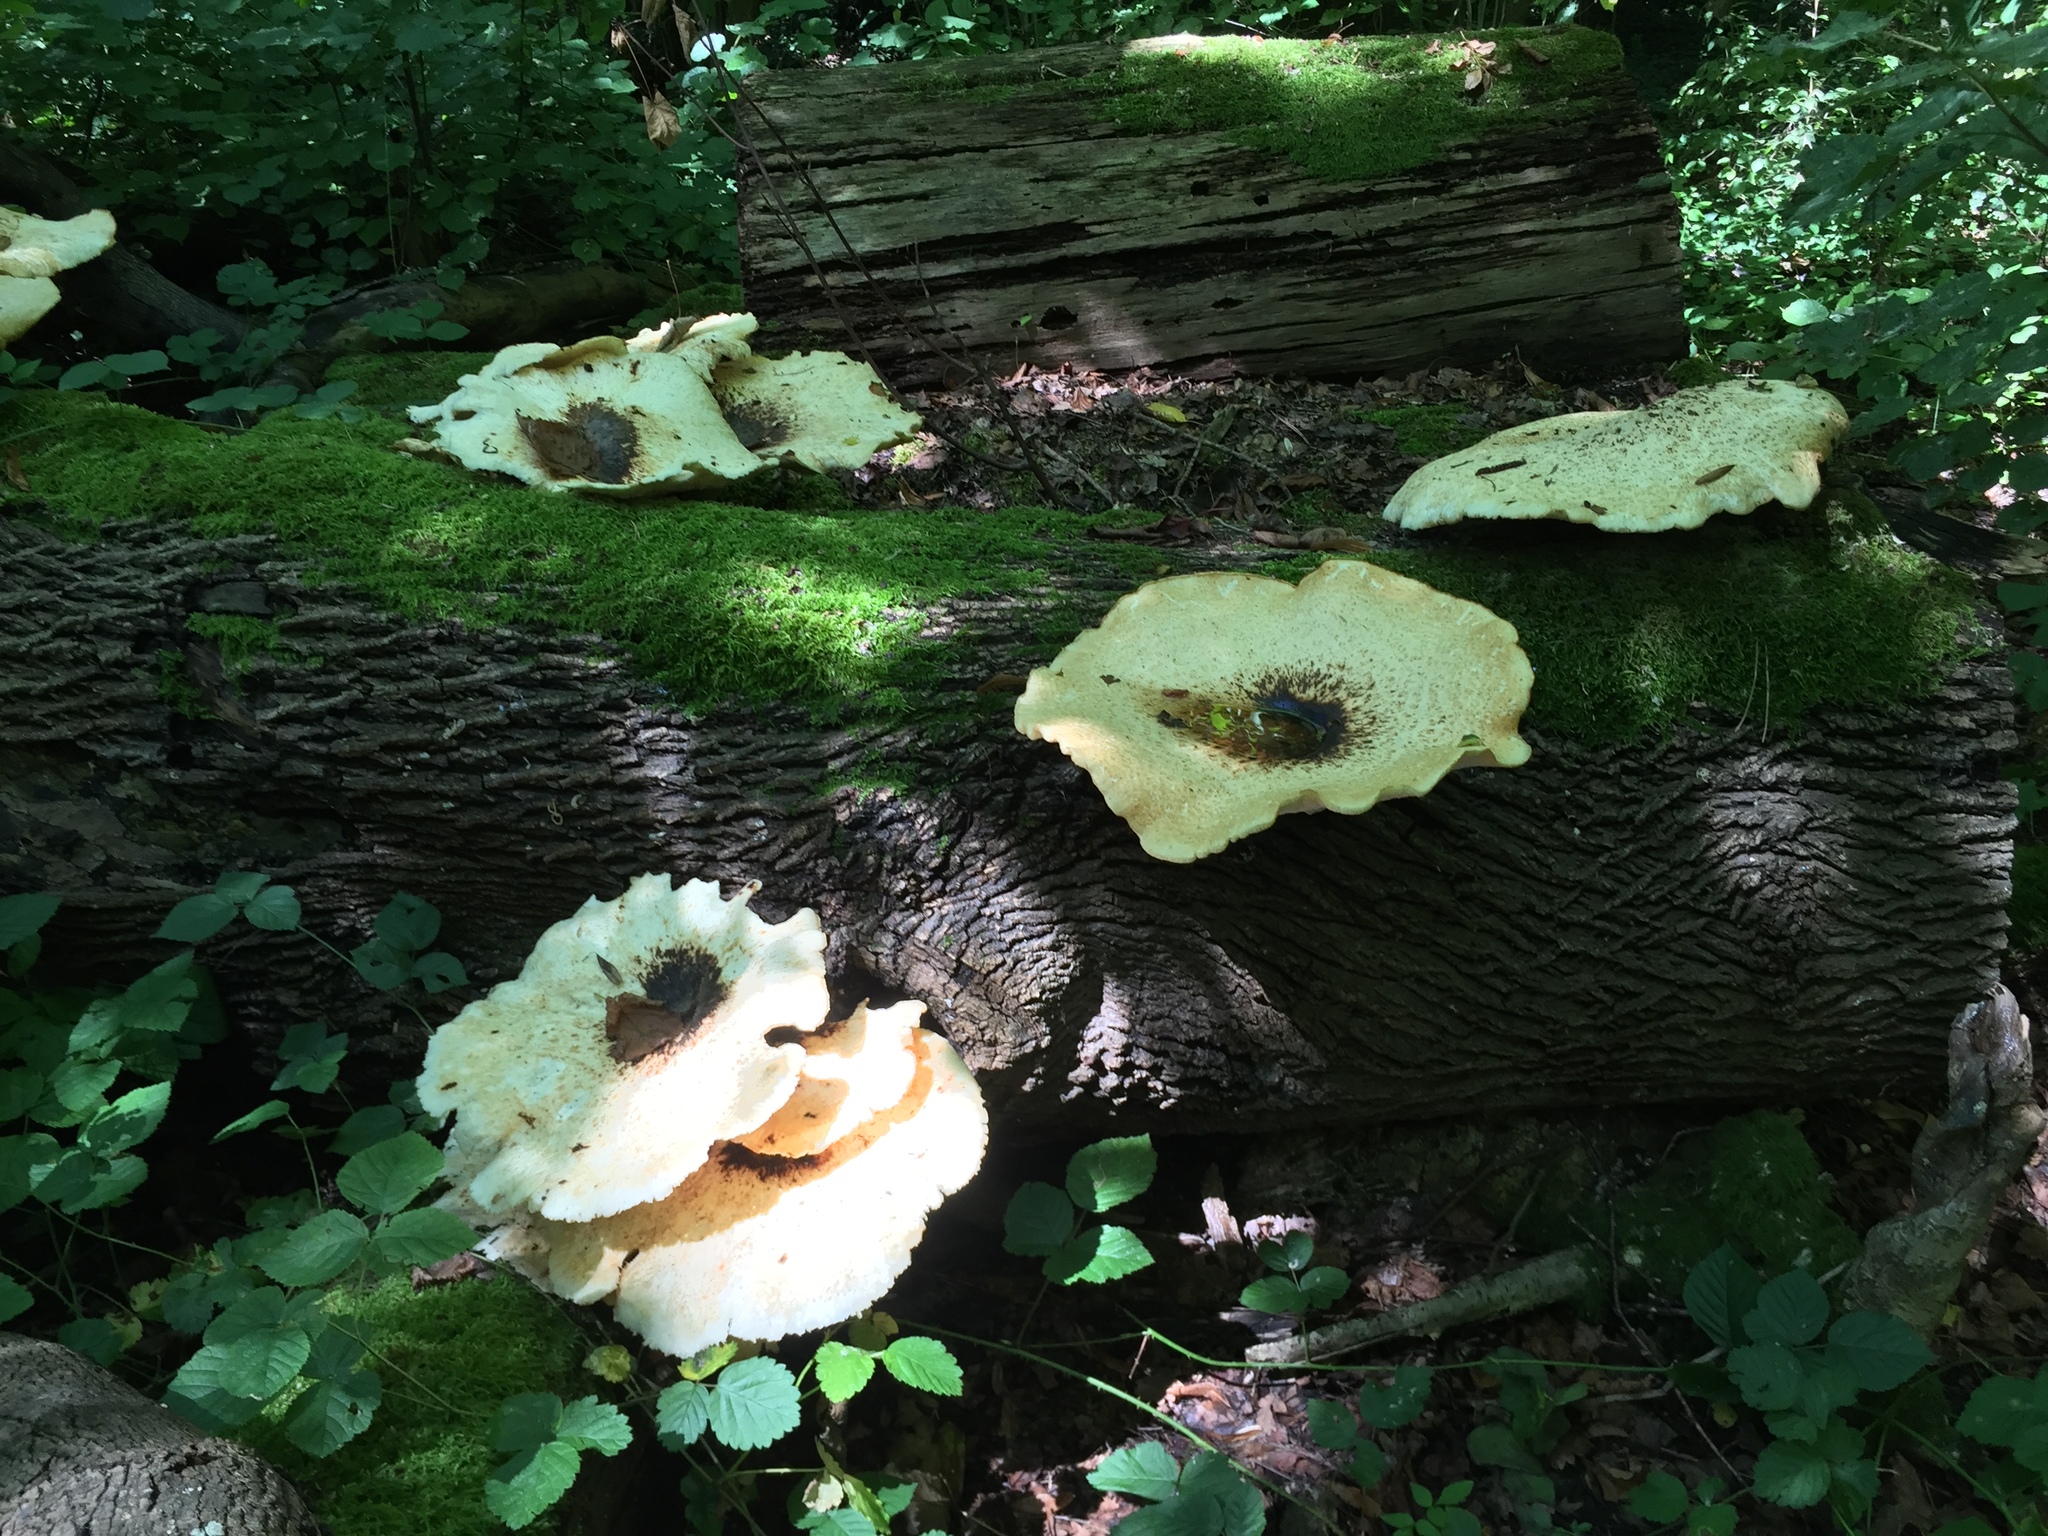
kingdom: Fungi
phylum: Basidiomycota
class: Agaricomycetes
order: Polyporales
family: Polyporaceae
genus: Cerioporus
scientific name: Cerioporus squamosus
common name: Dryad's saddle
